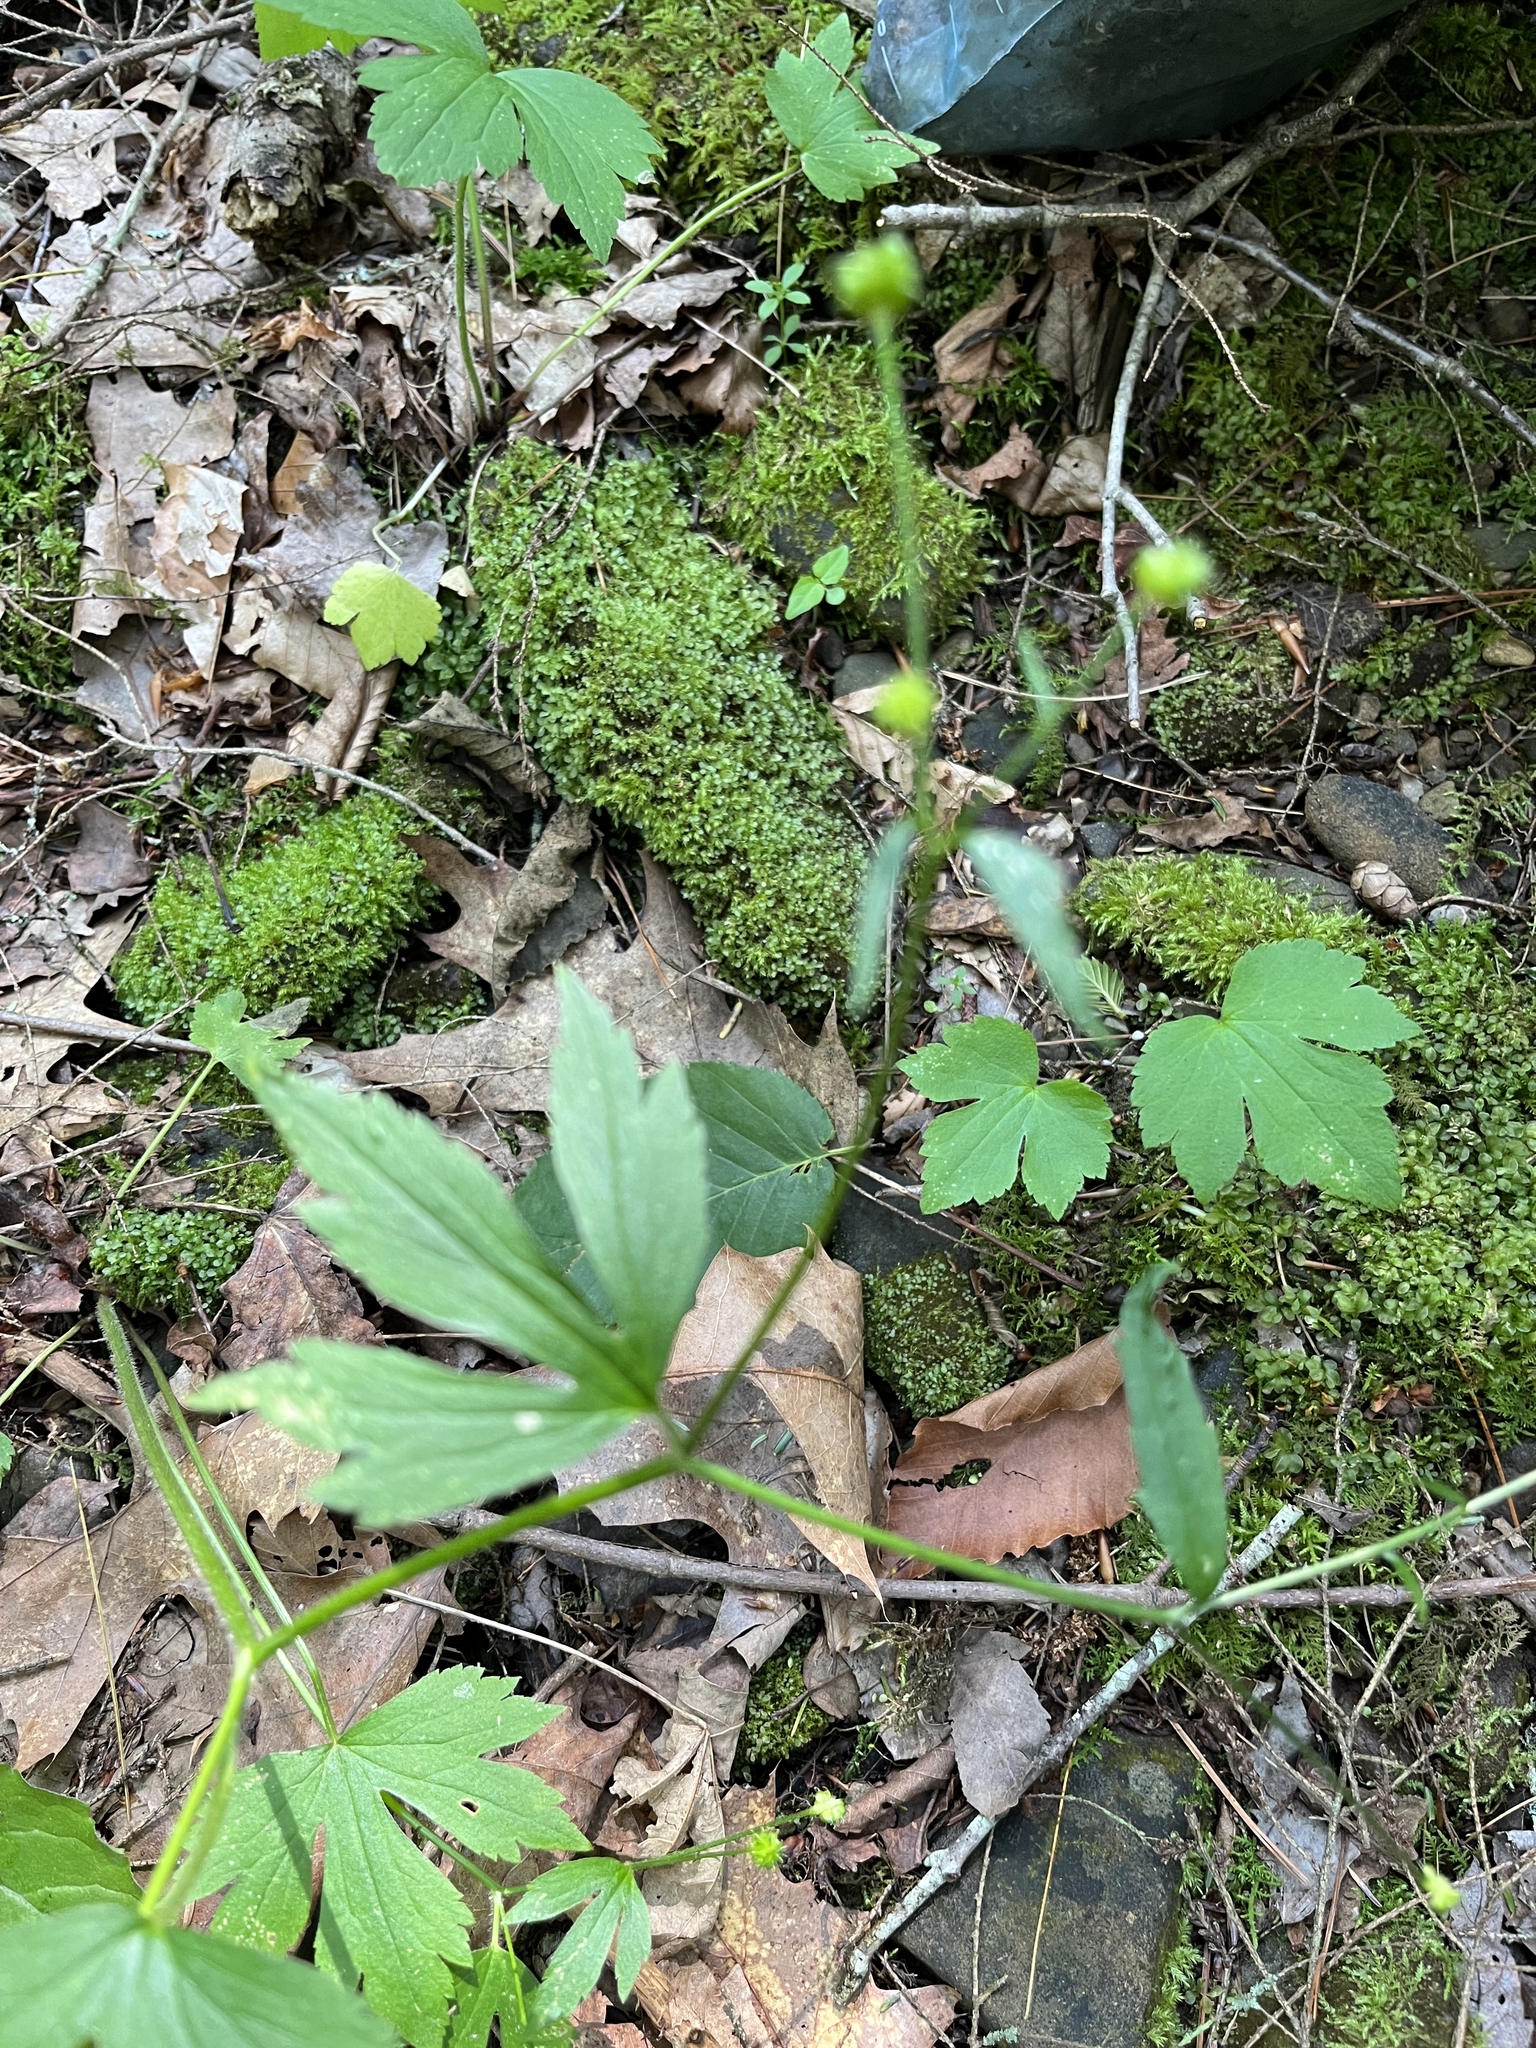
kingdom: Plantae
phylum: Tracheophyta
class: Magnoliopsida
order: Ranunculales
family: Ranunculaceae
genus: Ranunculus
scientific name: Ranunculus recurvatus
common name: Blisterwort
